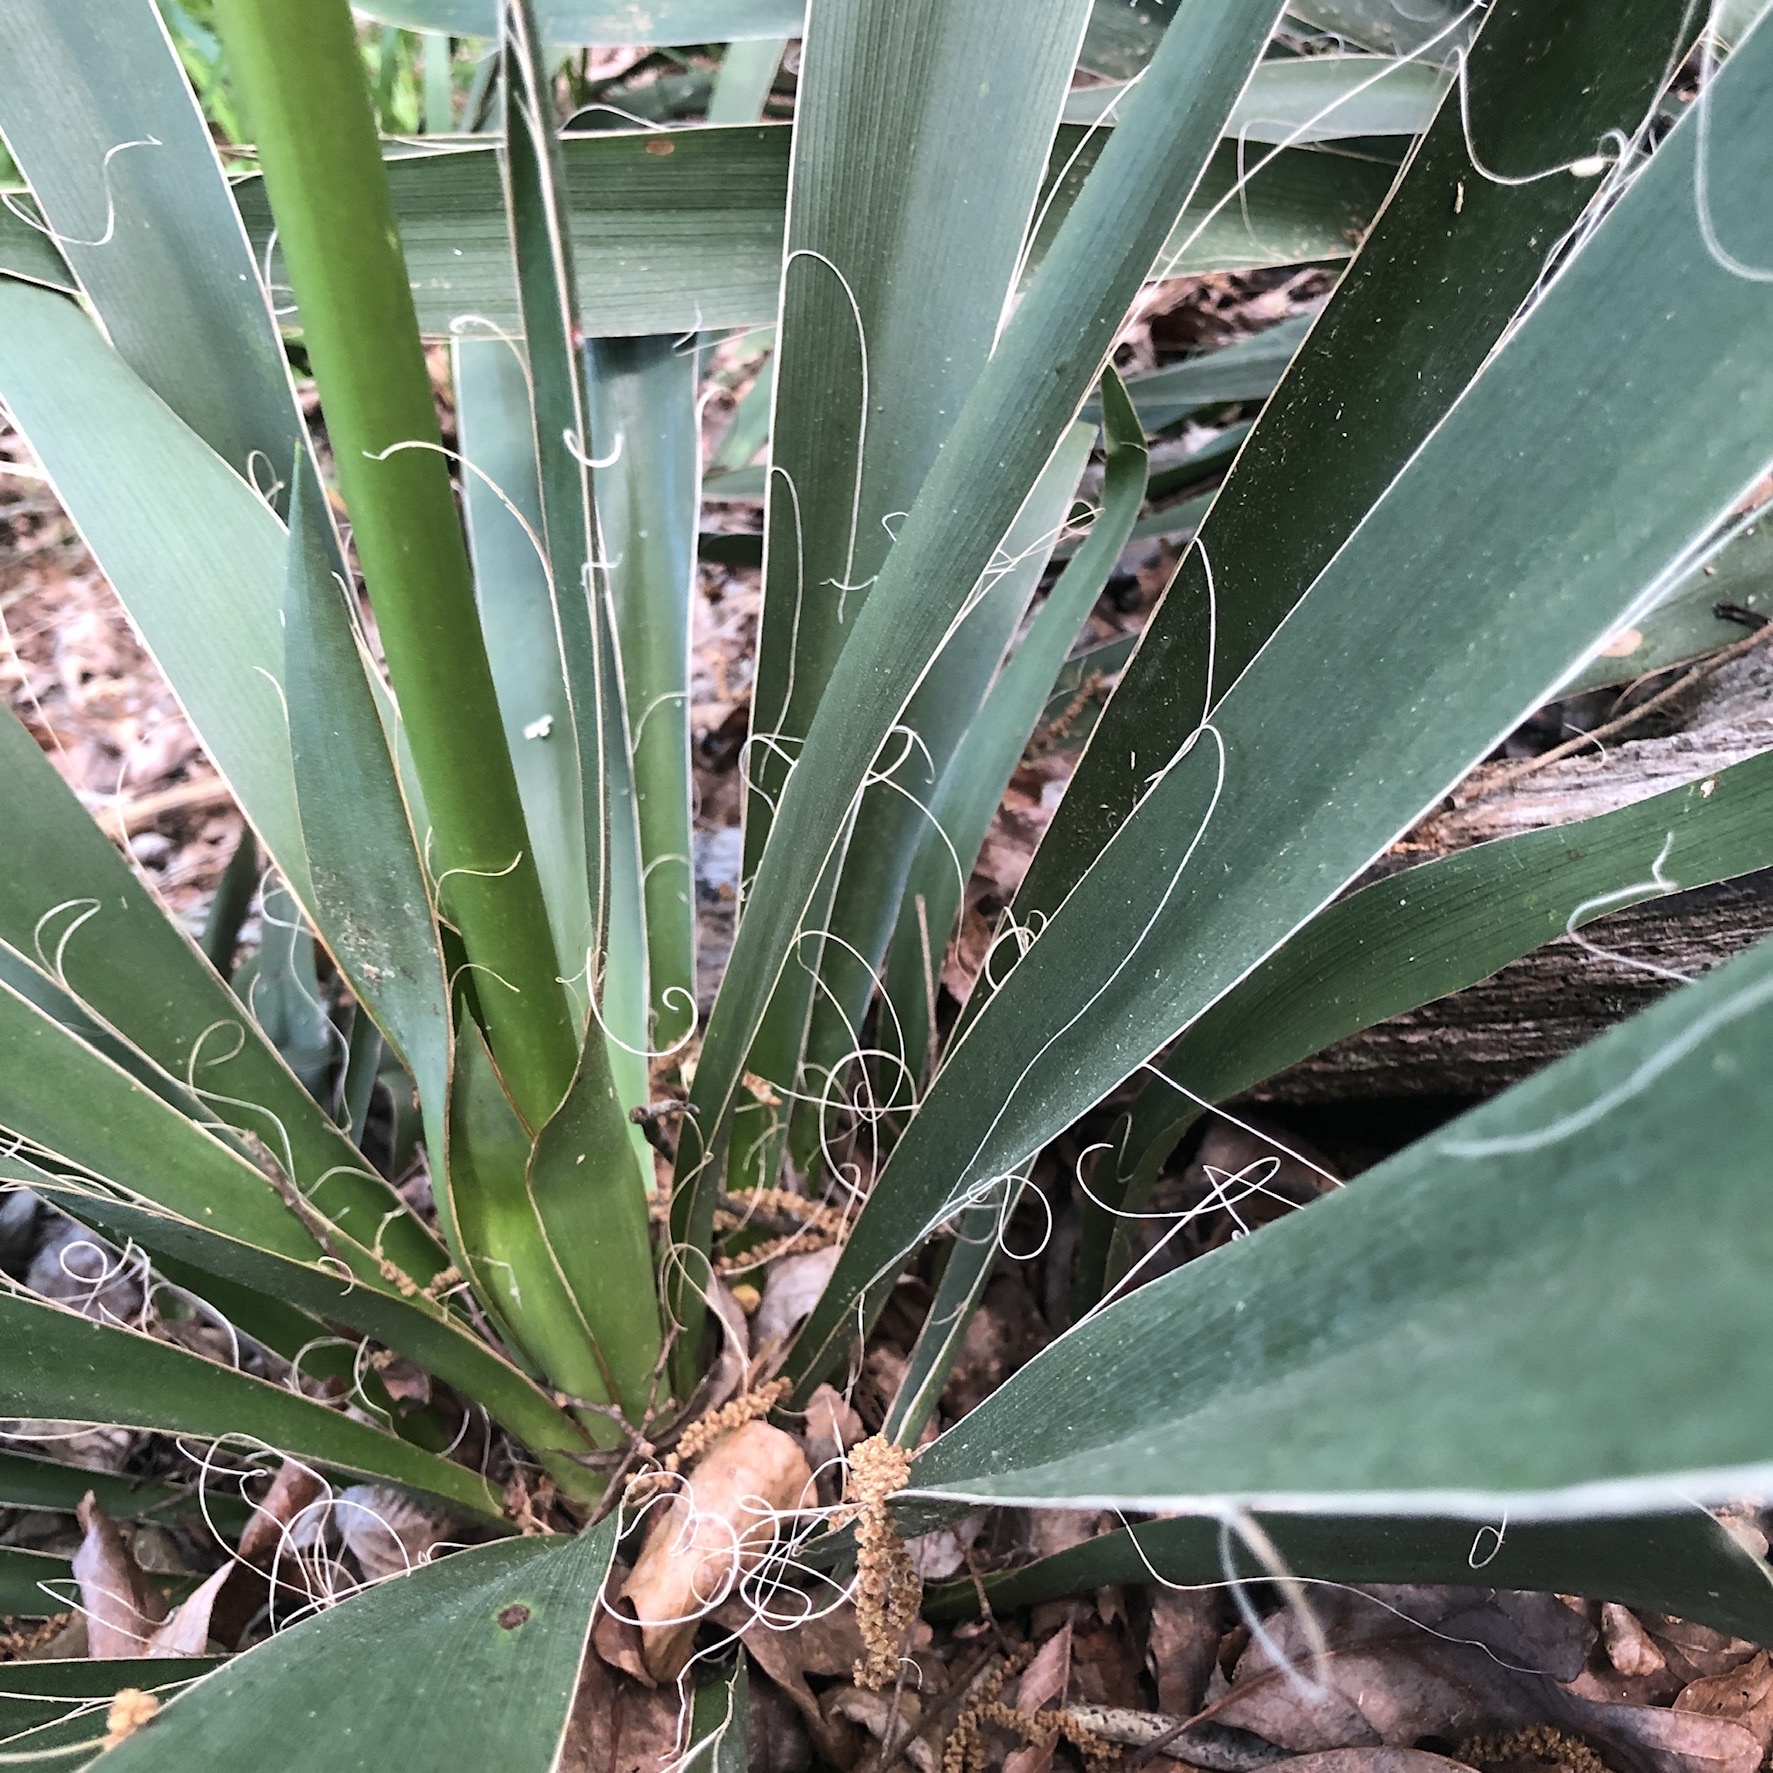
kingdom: Plantae
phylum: Tracheophyta
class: Liliopsida
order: Asparagales
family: Asparagaceae
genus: Yucca
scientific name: Yucca filamentosa
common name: Adam's-needle
